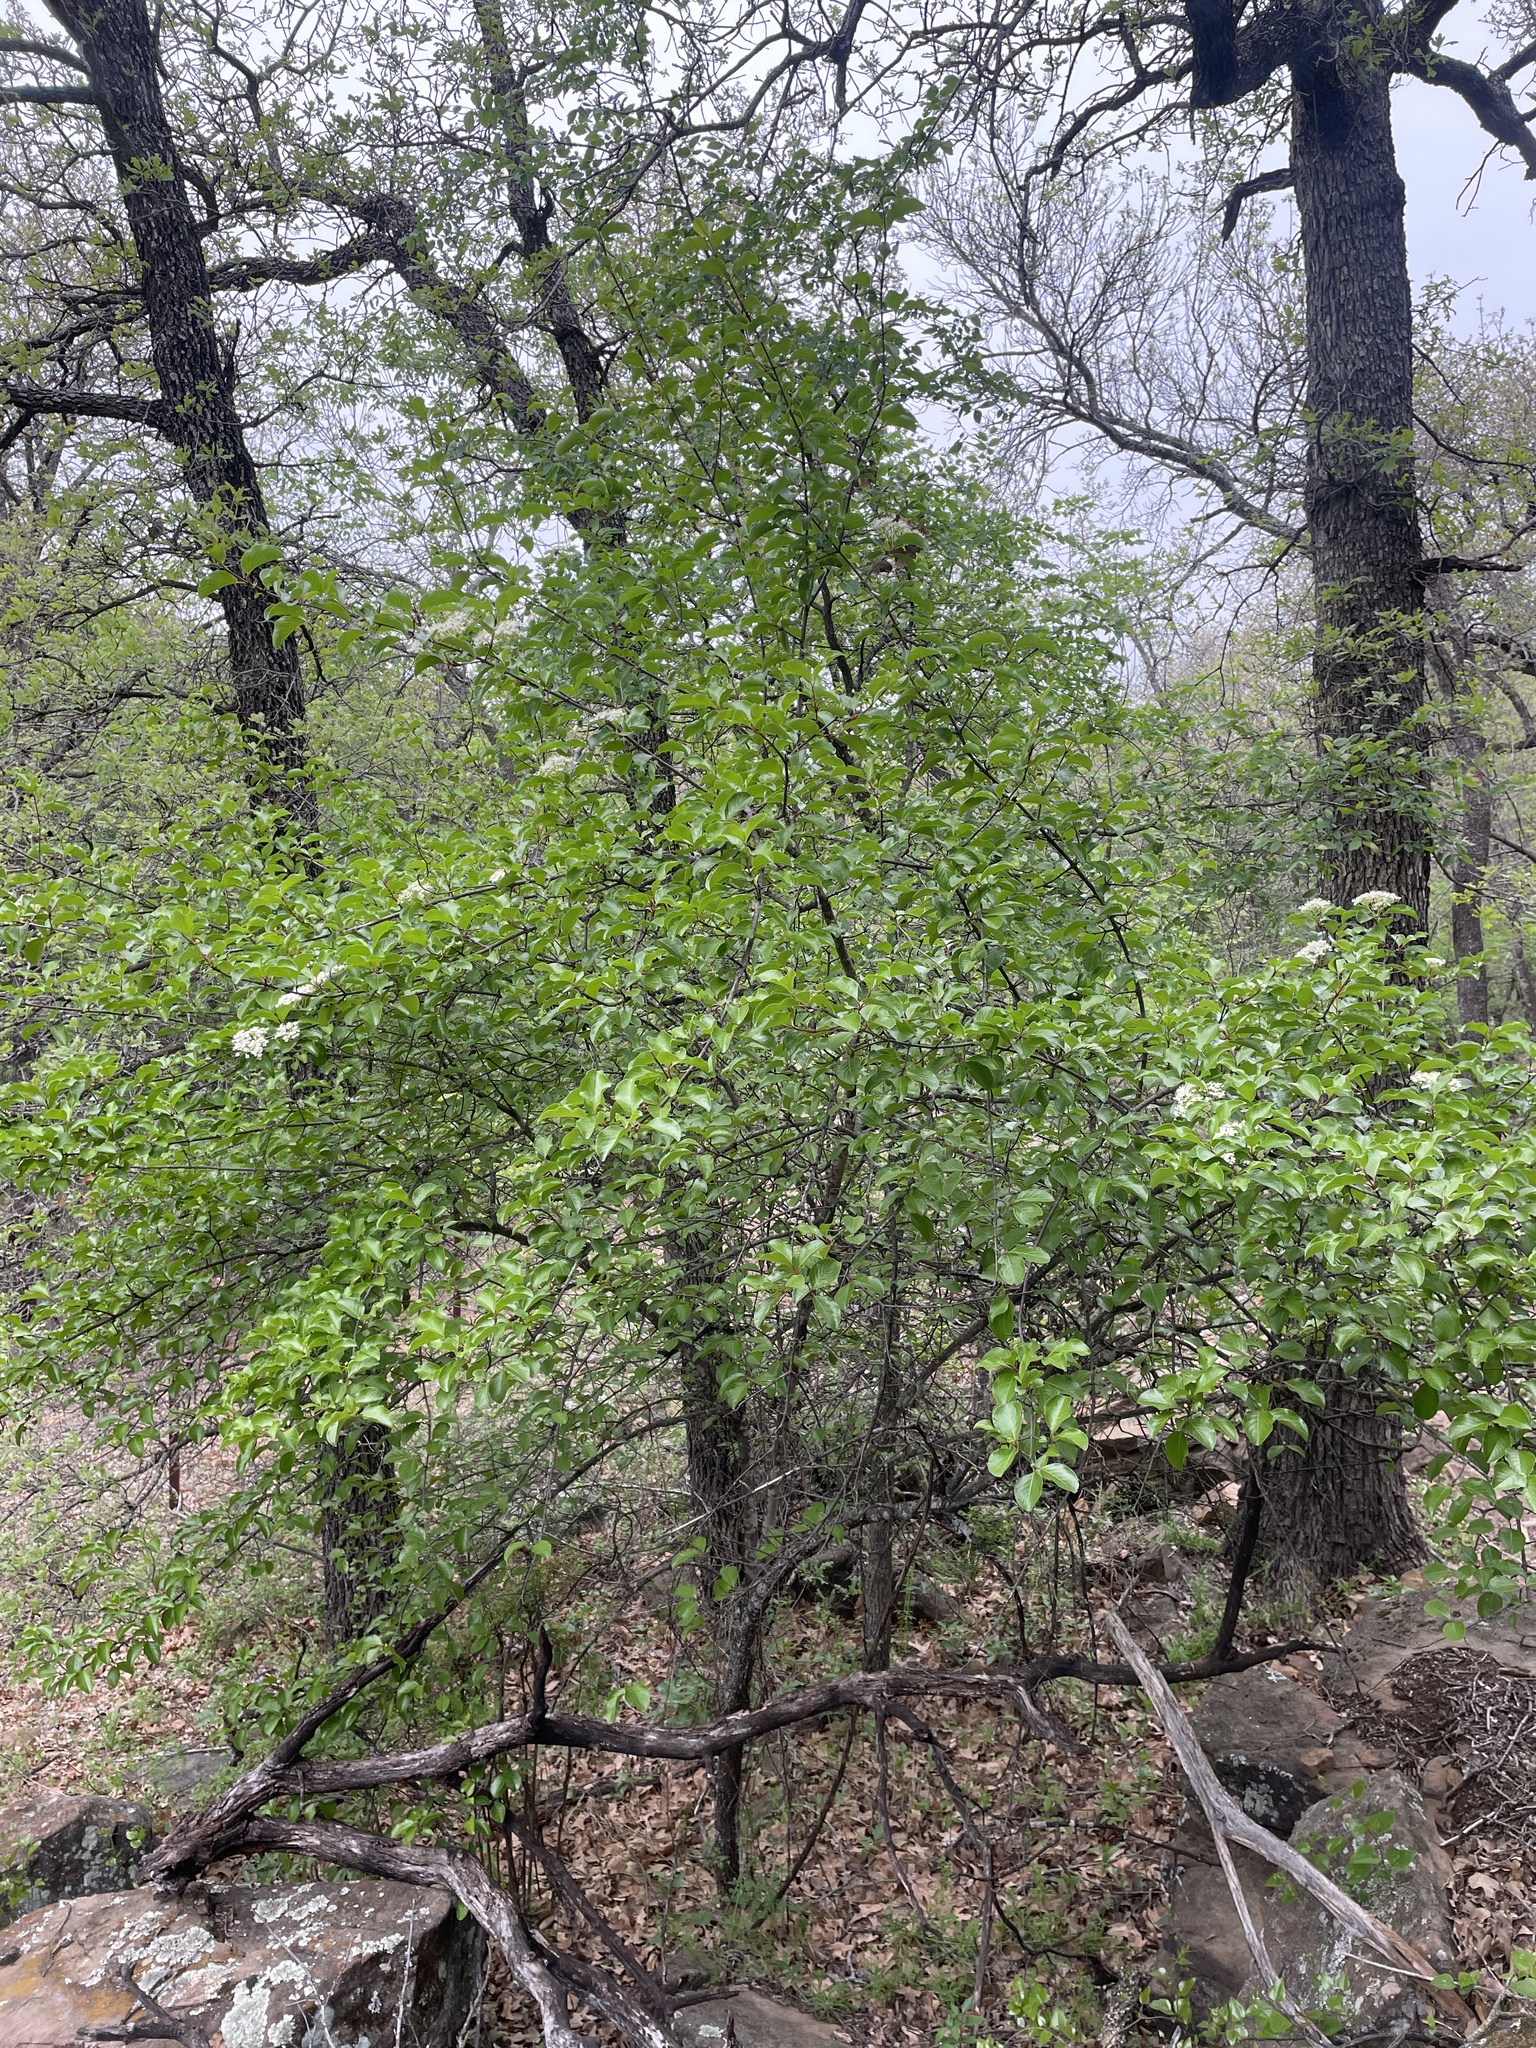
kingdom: Plantae
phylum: Tracheophyta
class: Magnoliopsida
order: Dipsacales
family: Viburnaceae
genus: Viburnum
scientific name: Viburnum rufidulum
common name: Blue haw
